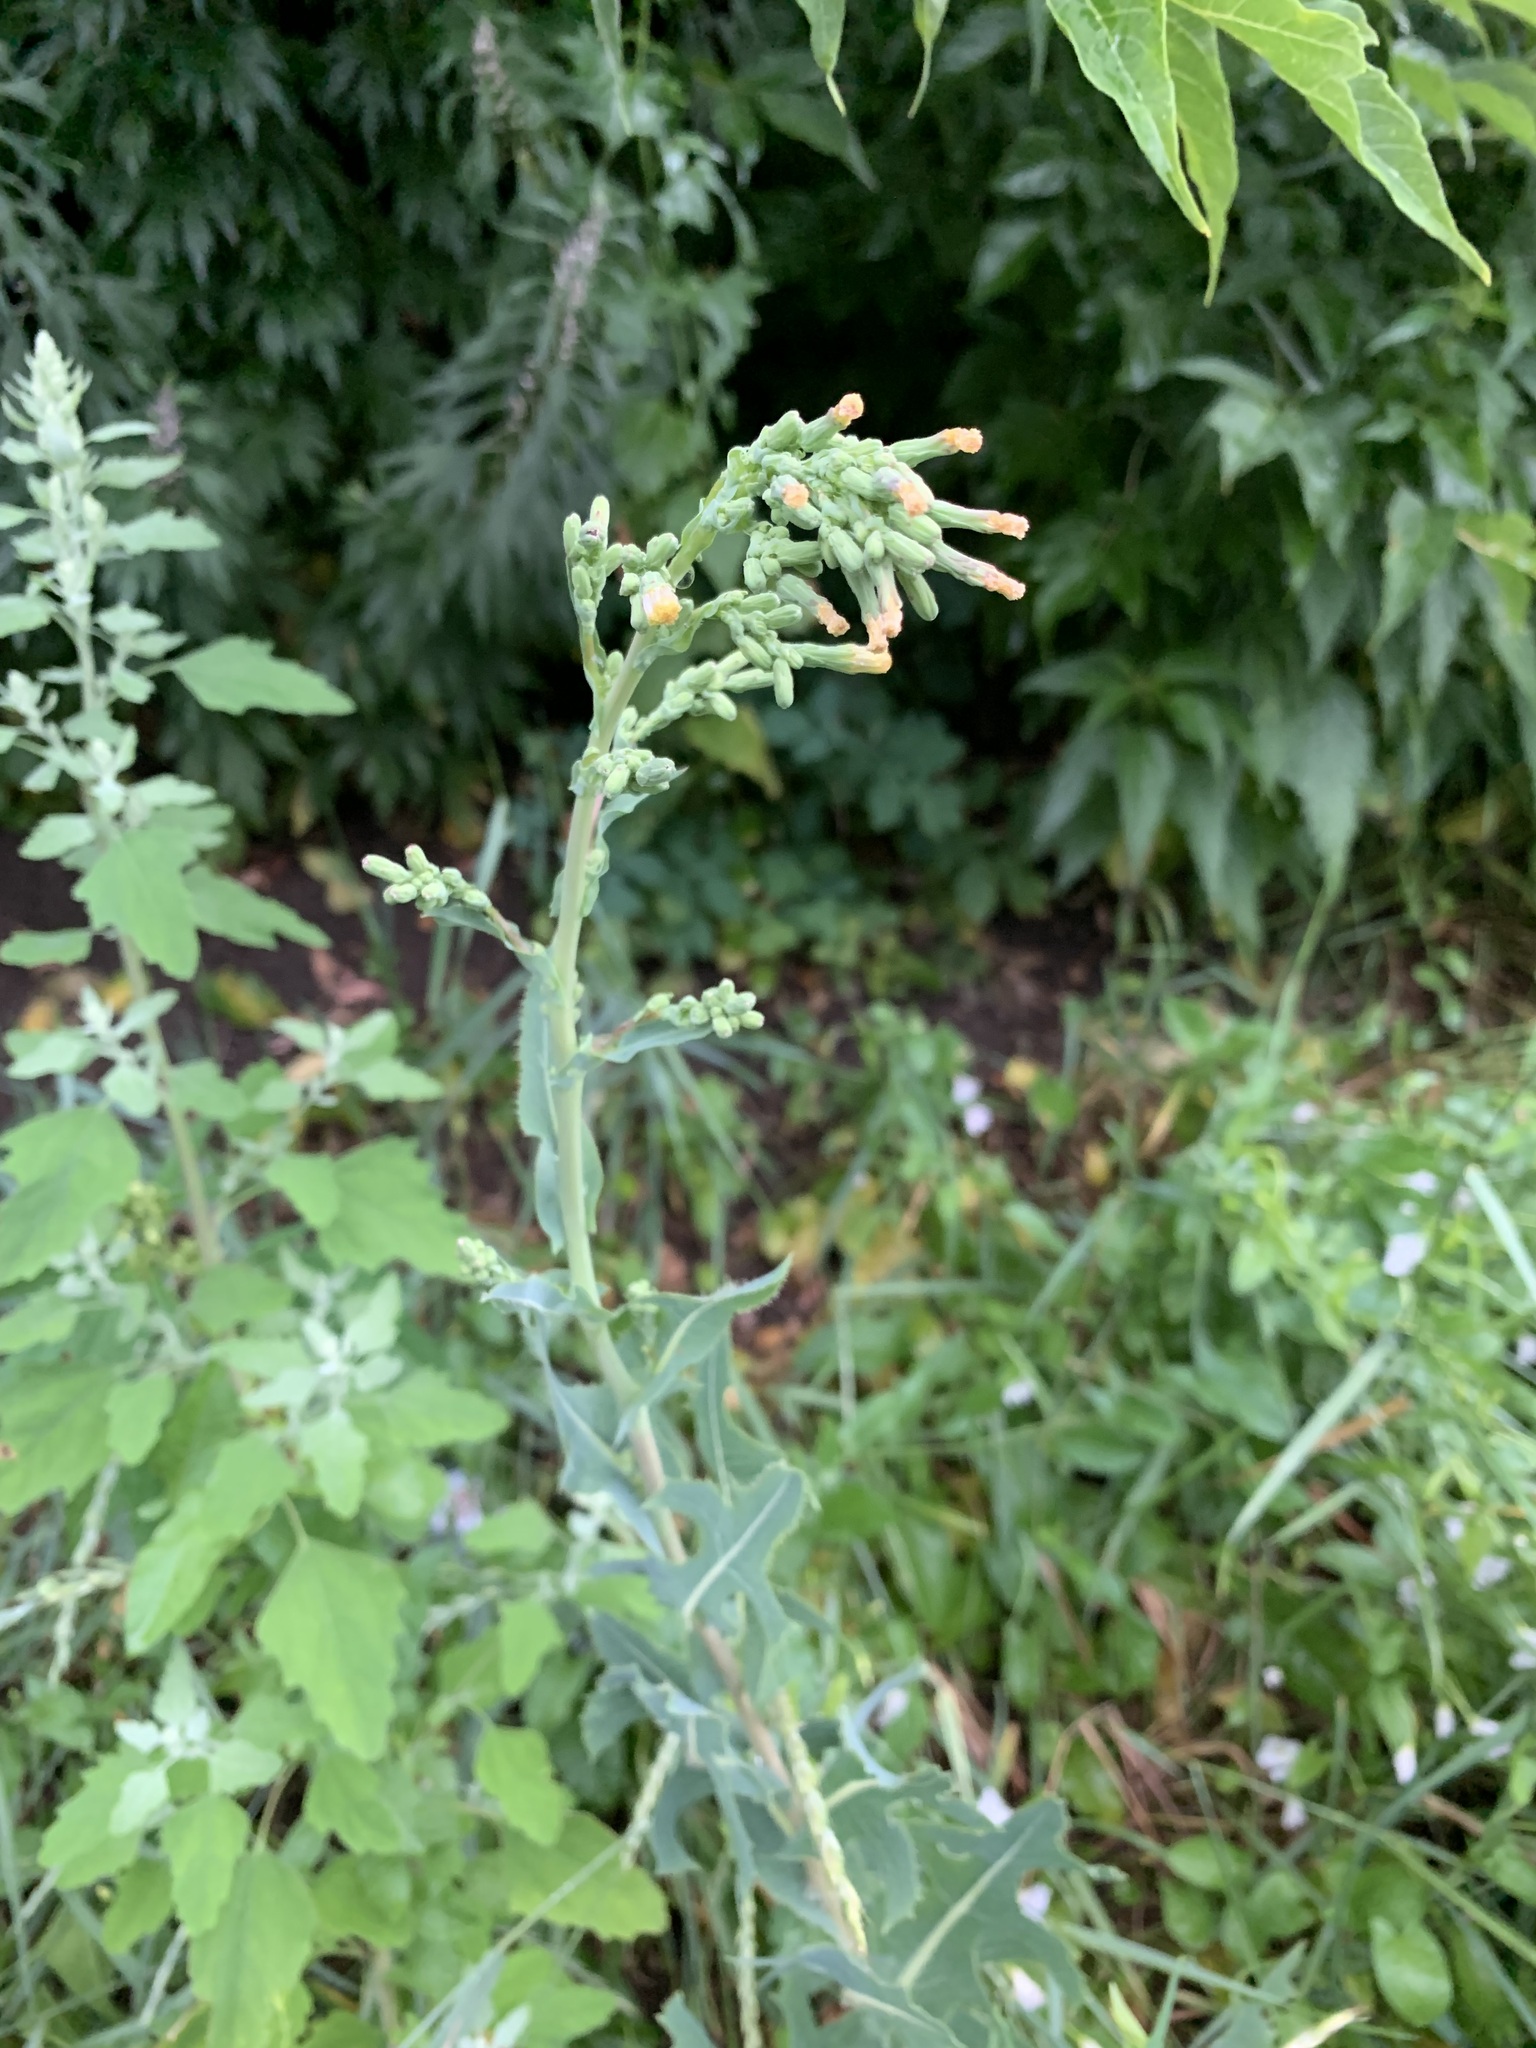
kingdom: Plantae
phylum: Tracheophyta
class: Magnoliopsida
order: Asterales
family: Asteraceae
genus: Lactuca
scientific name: Lactuca serriola
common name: Prickly lettuce
